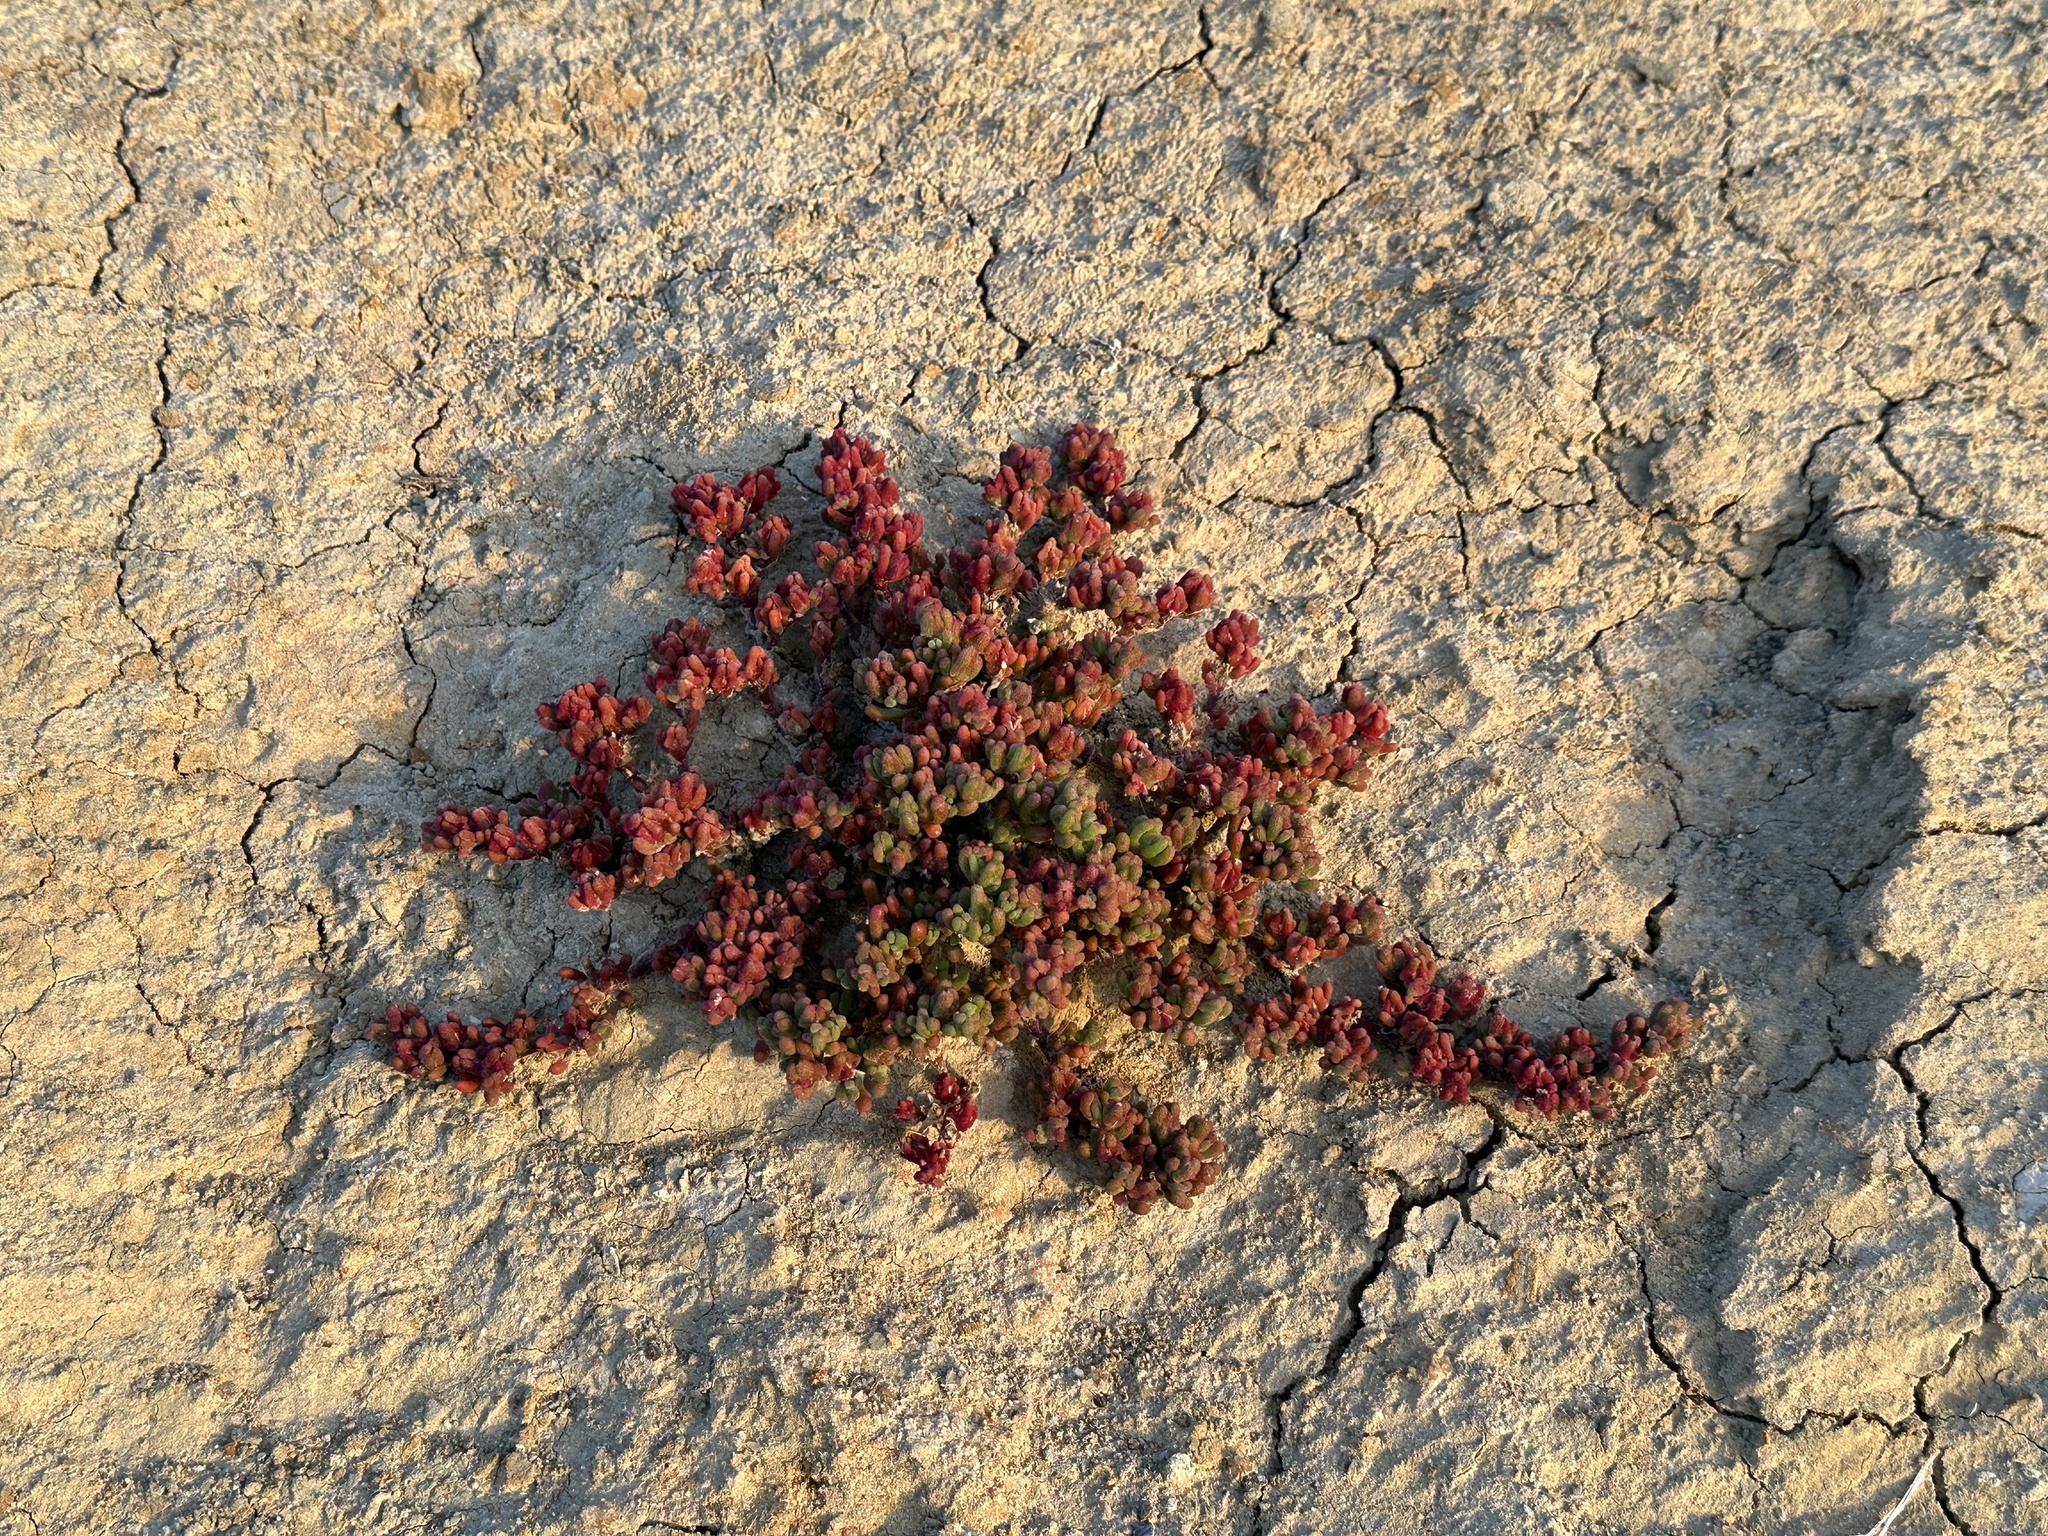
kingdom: Plantae
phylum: Tracheophyta
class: Magnoliopsida
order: Caryophyllales
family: Aizoaceae
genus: Mesembryanthemum
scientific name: Mesembryanthemum nodiflorum
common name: Slenderleaf iceplant
